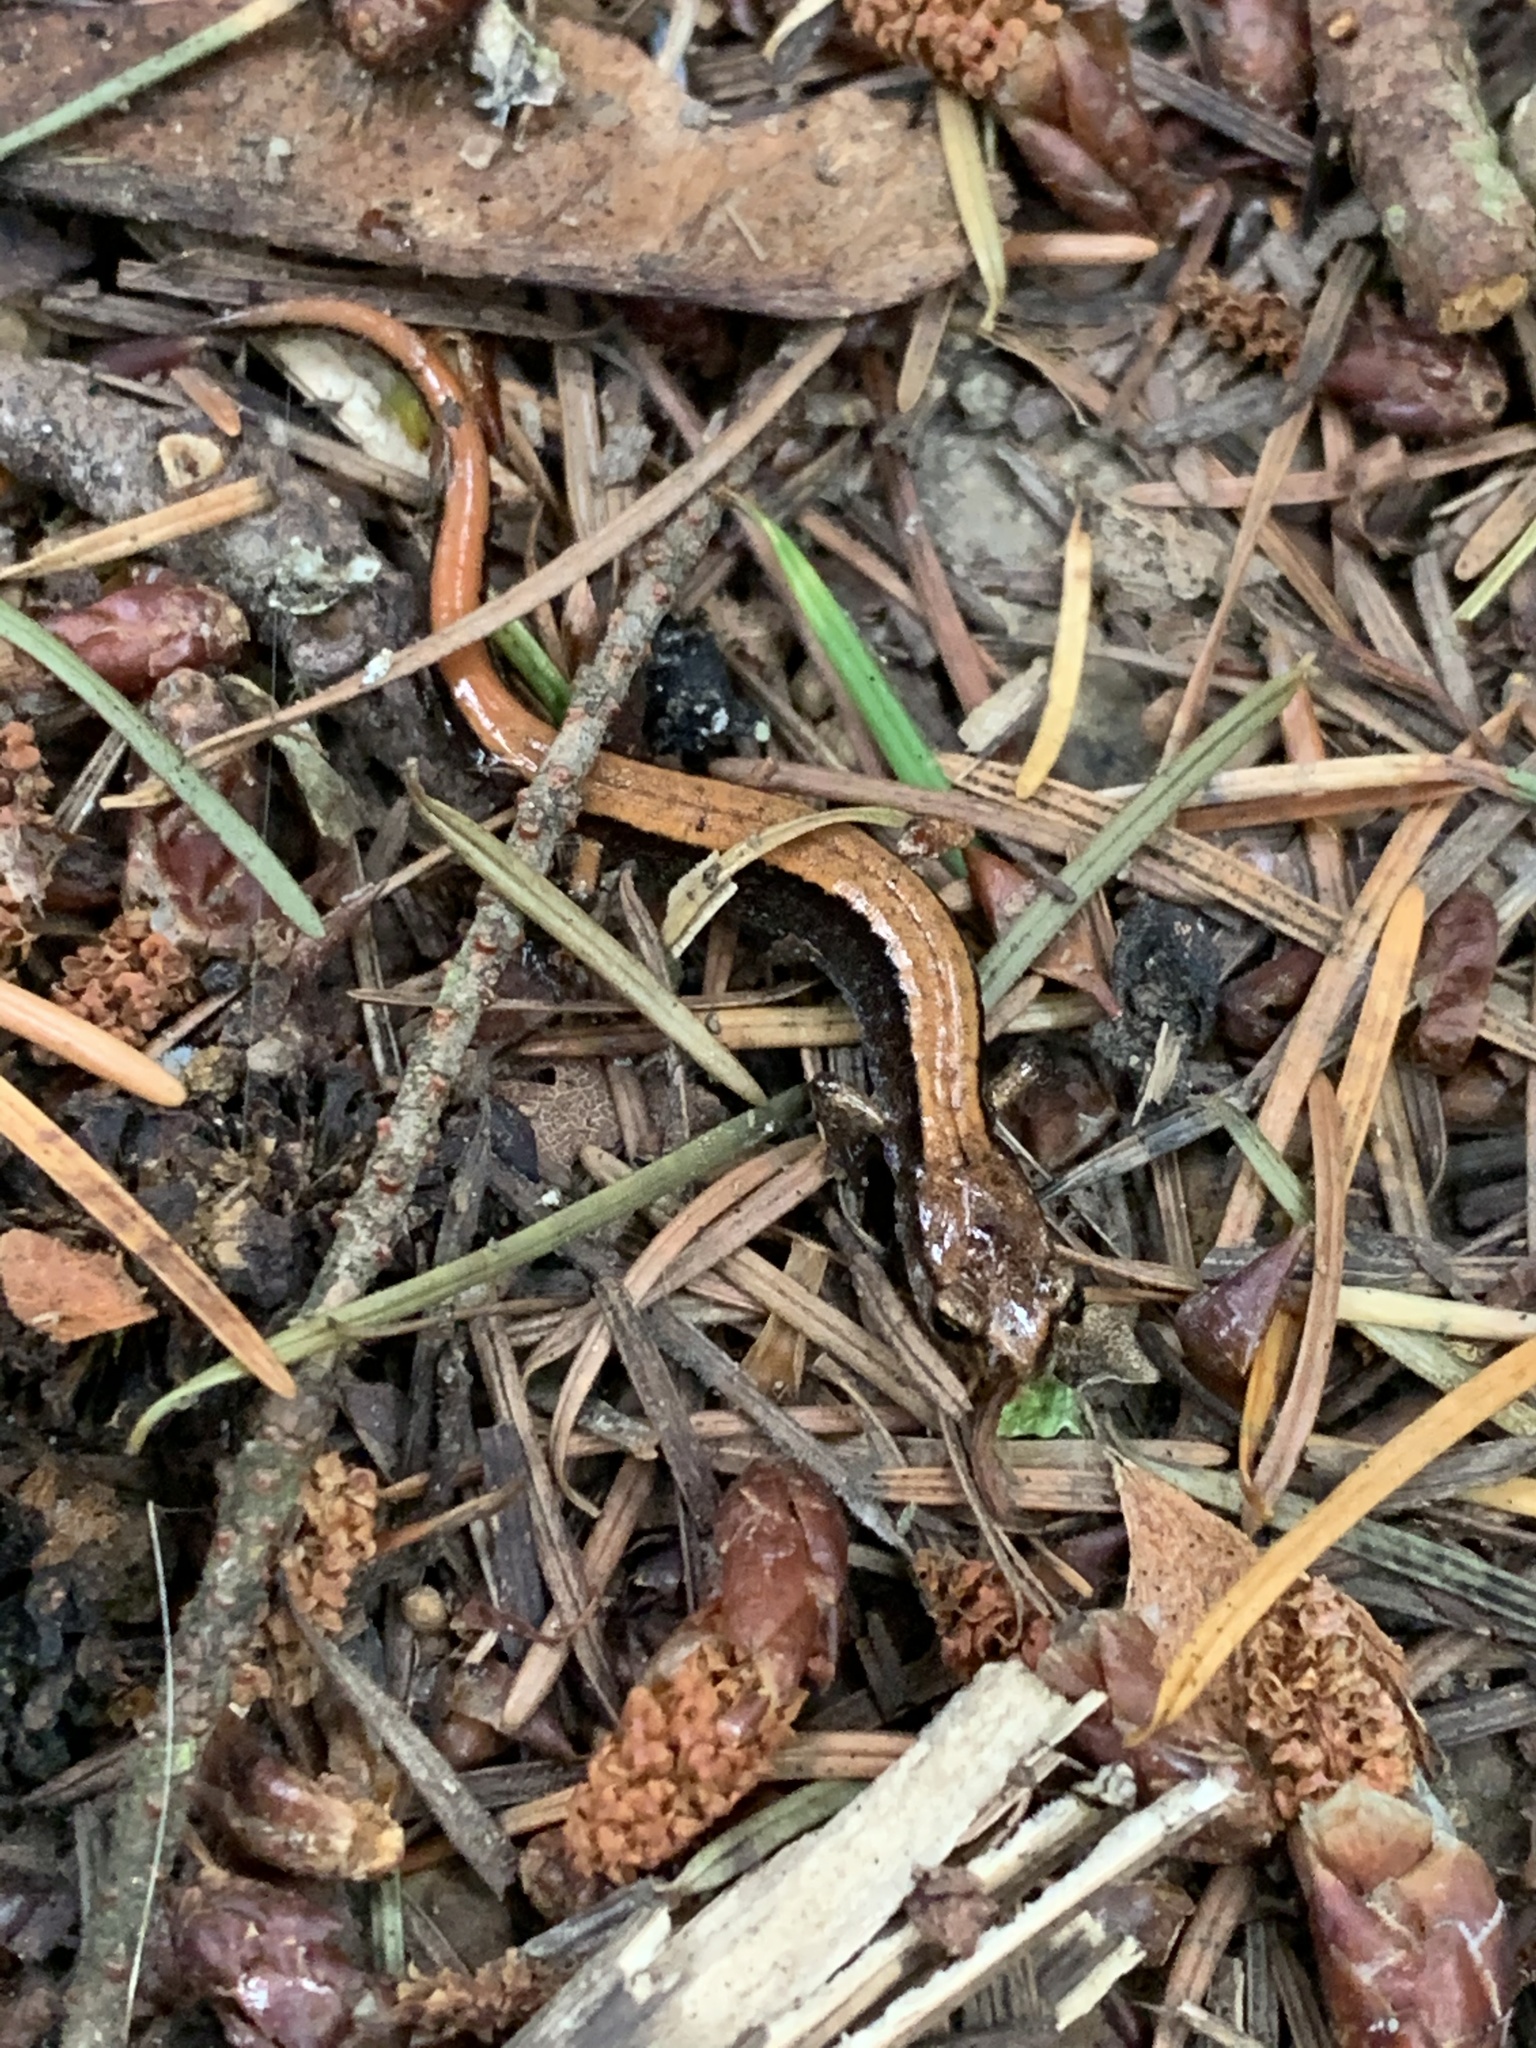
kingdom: Animalia
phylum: Chordata
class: Amphibia
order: Caudata
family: Plethodontidae
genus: Plethodon
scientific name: Plethodon vehiculum
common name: Western red-backed salamander
